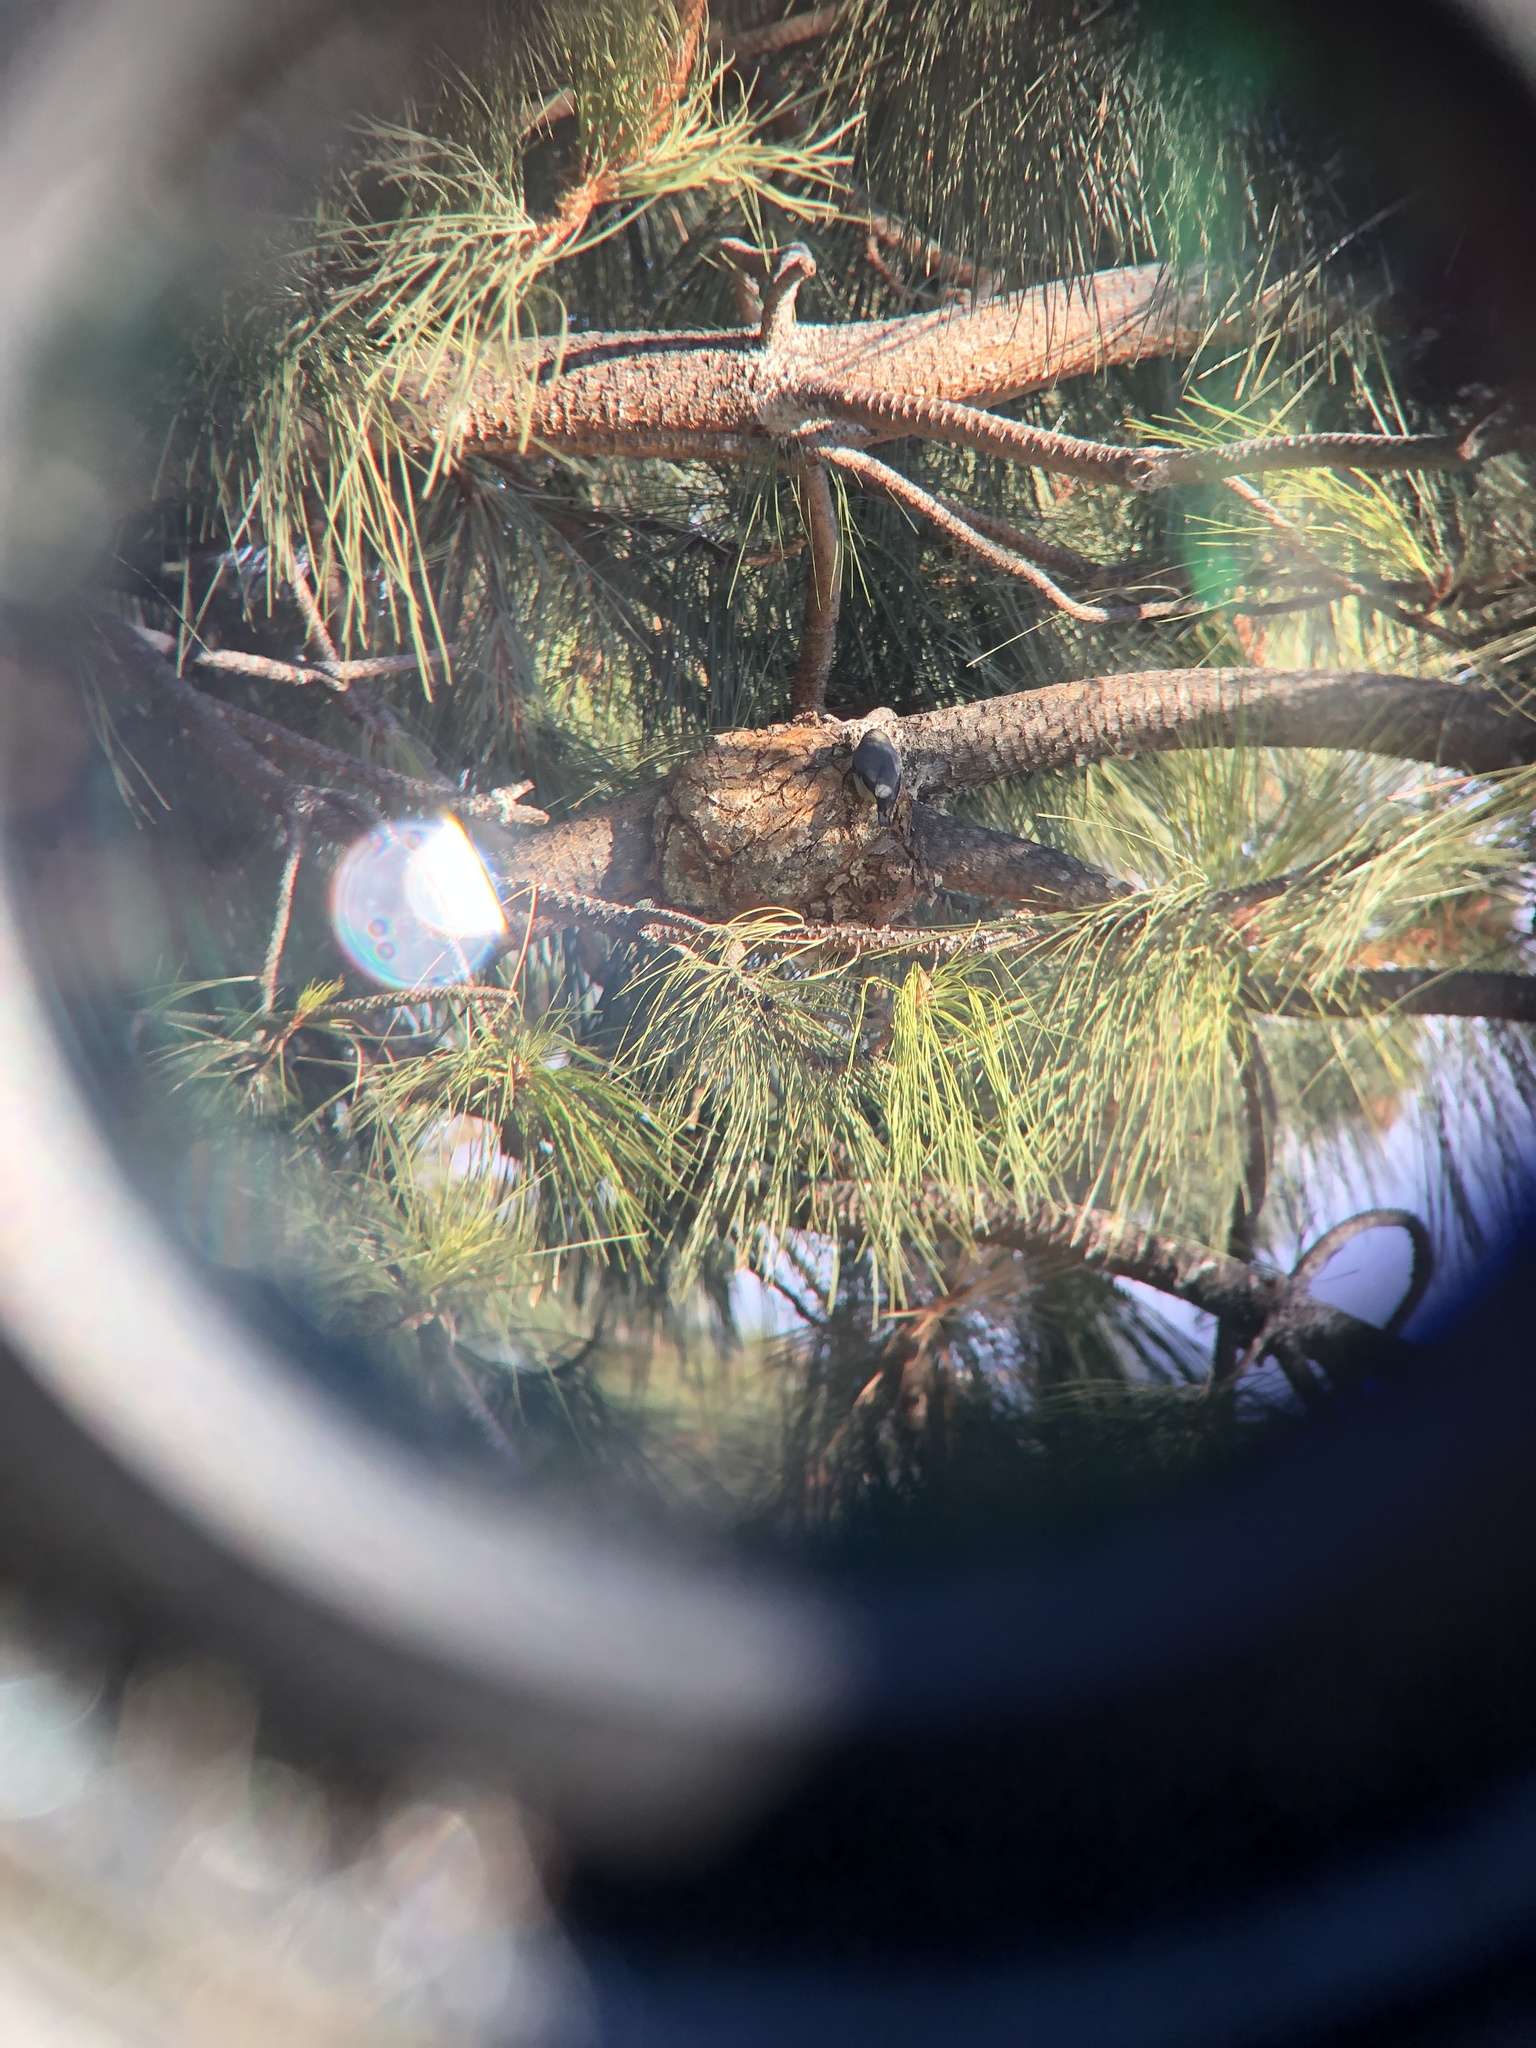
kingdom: Animalia
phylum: Chordata
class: Aves
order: Passeriformes
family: Sittidae
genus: Sitta
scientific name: Sitta pygmaea
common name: Pygmy nuthatch
